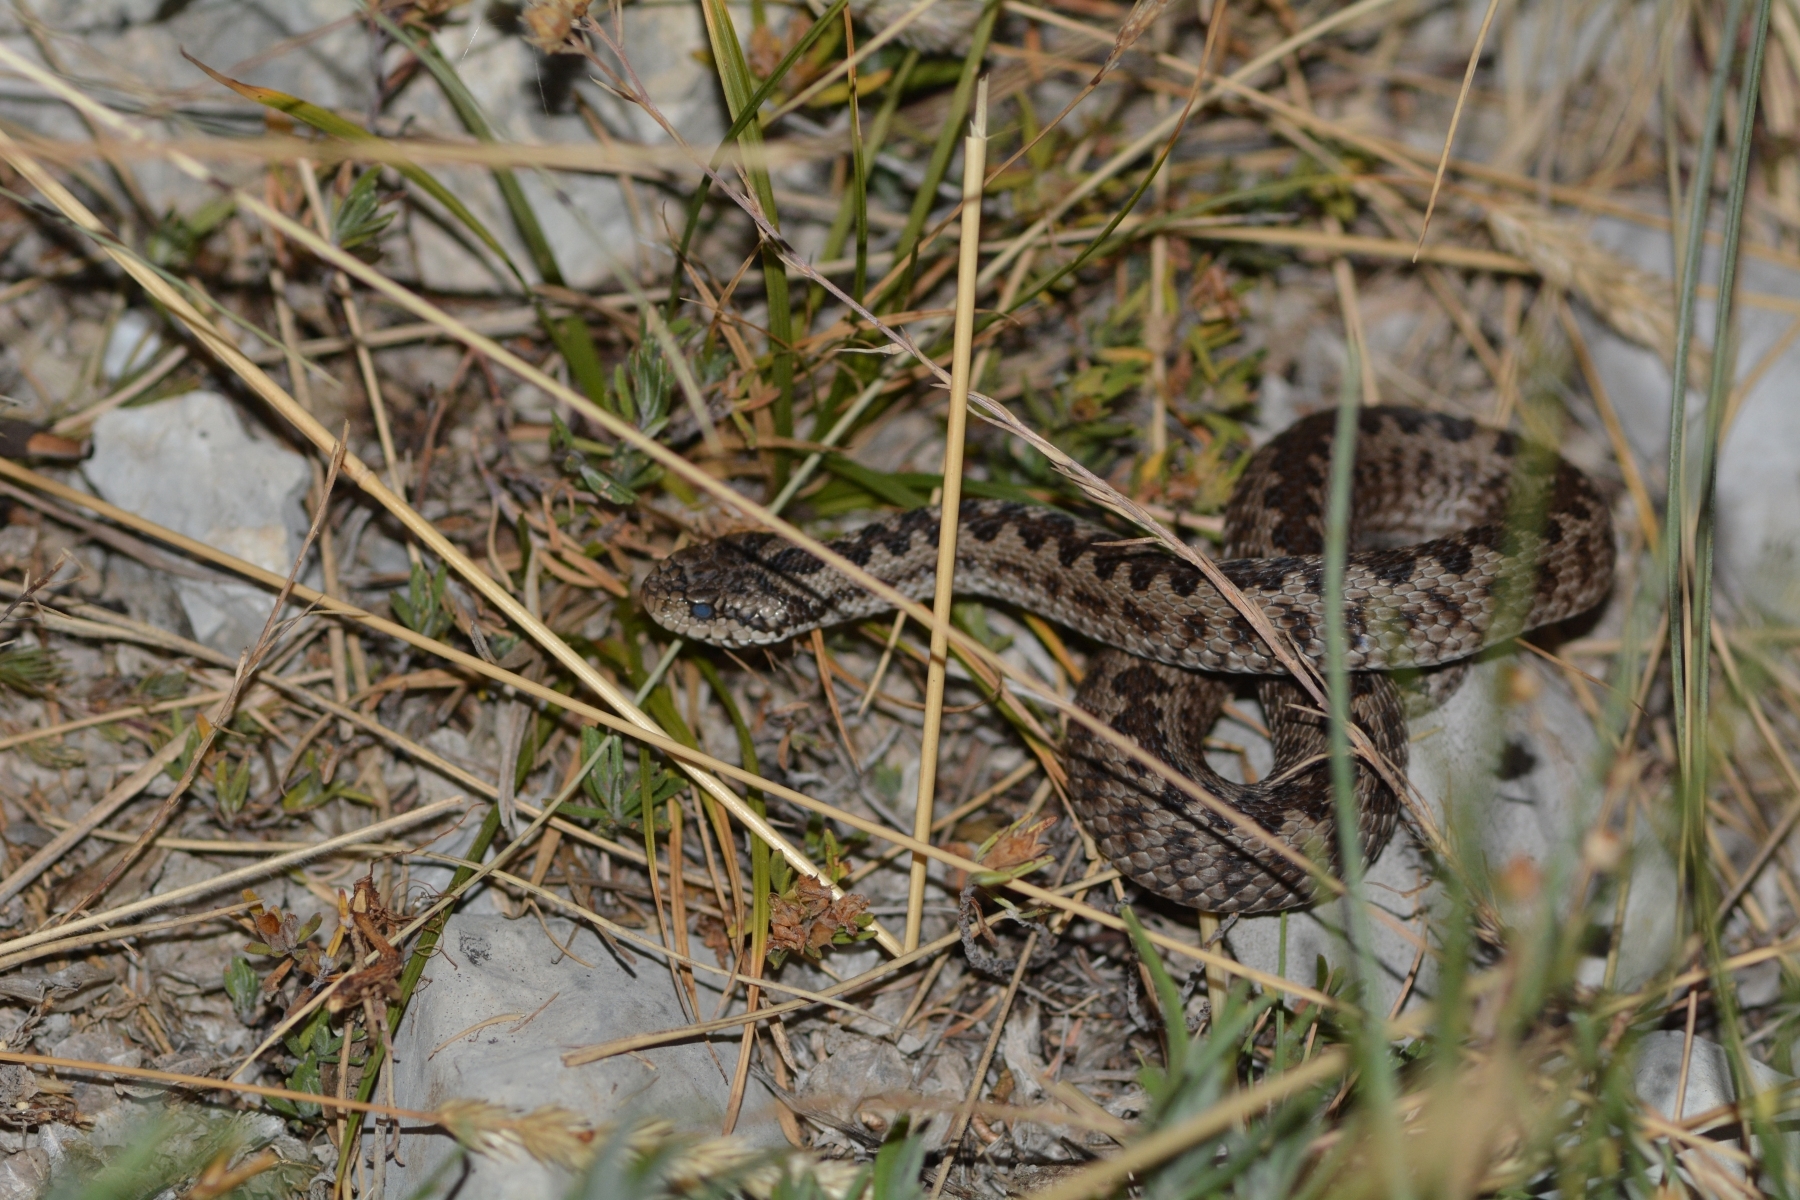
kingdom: Animalia
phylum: Chordata
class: Squamata
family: Viperidae
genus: Vipera
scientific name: Vipera ursinii
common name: Meadow viper
